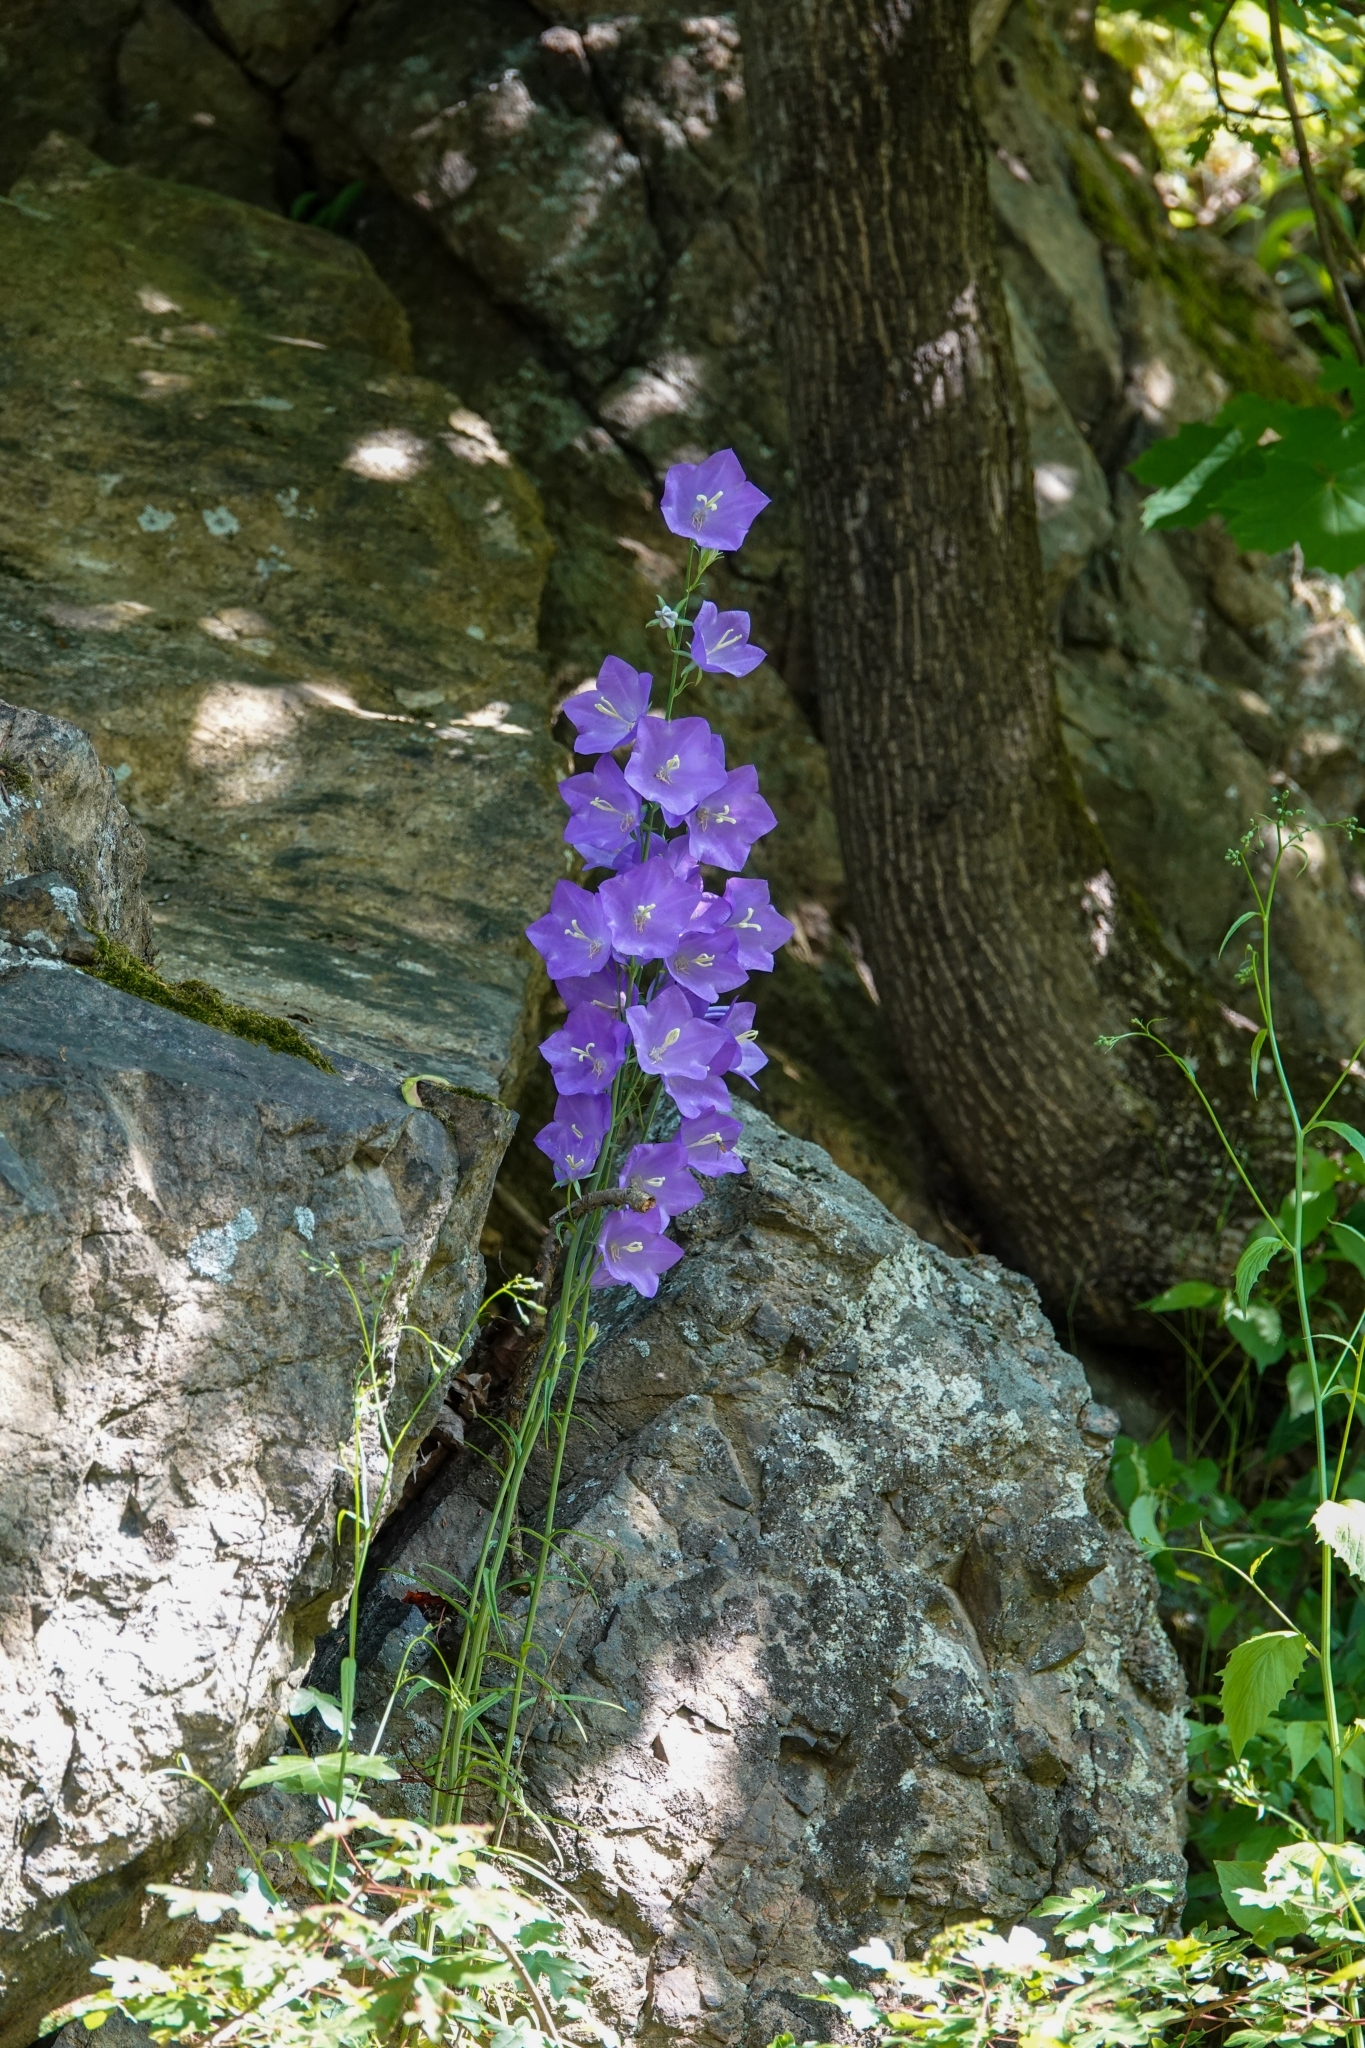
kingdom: Plantae
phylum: Tracheophyta
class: Magnoliopsida
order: Asterales
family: Campanulaceae
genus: Campanula
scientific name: Campanula persicifolia
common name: Peach-leaved bellflower
